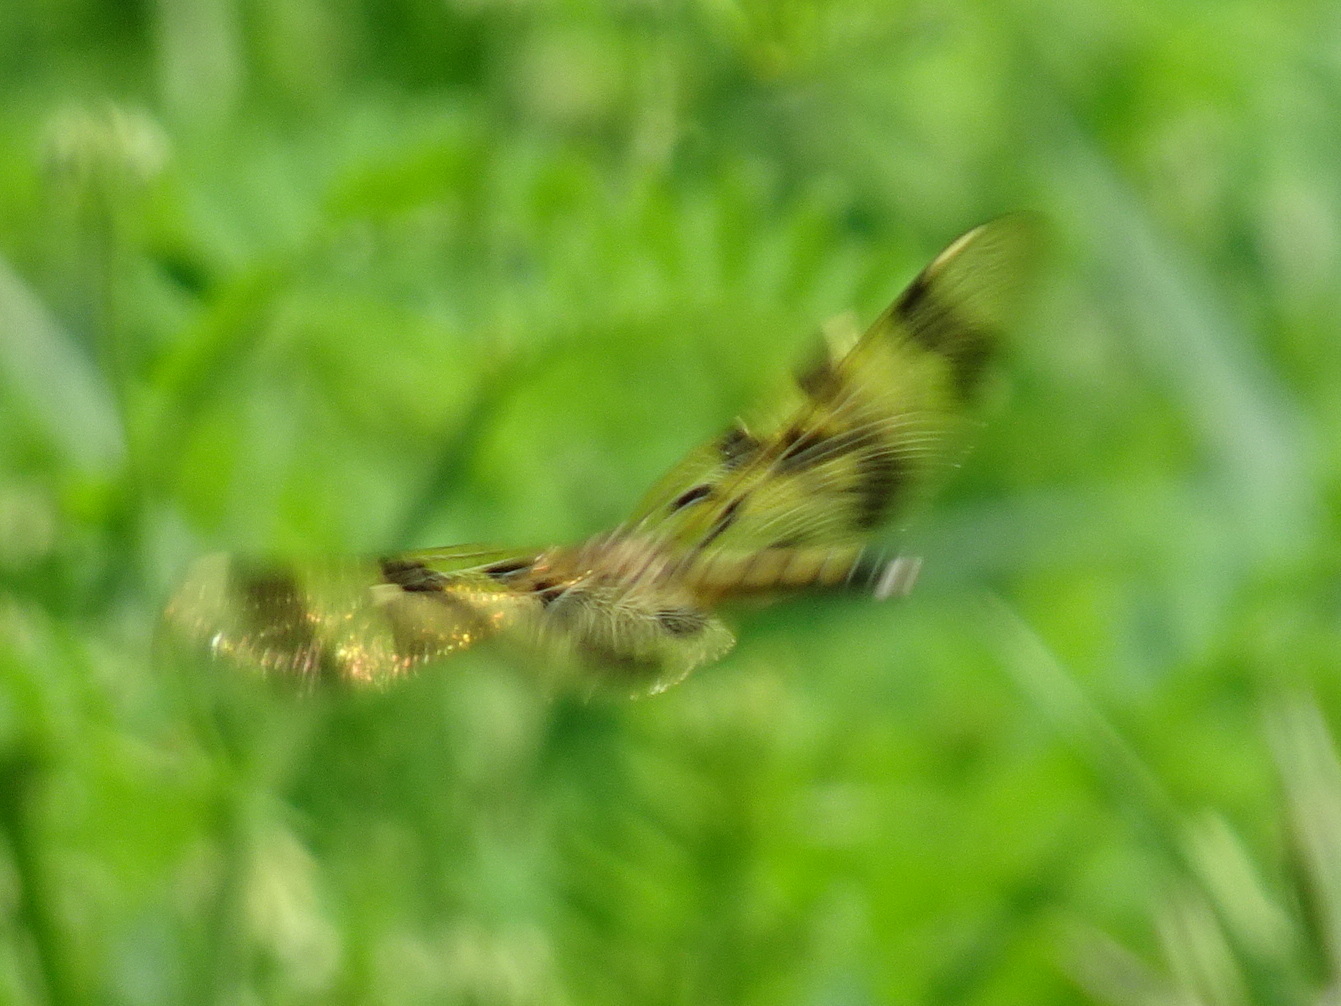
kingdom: Animalia
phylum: Arthropoda
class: Insecta
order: Odonata
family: Libellulidae
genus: Celithemis
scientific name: Celithemis eponina
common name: Halloween pennant
